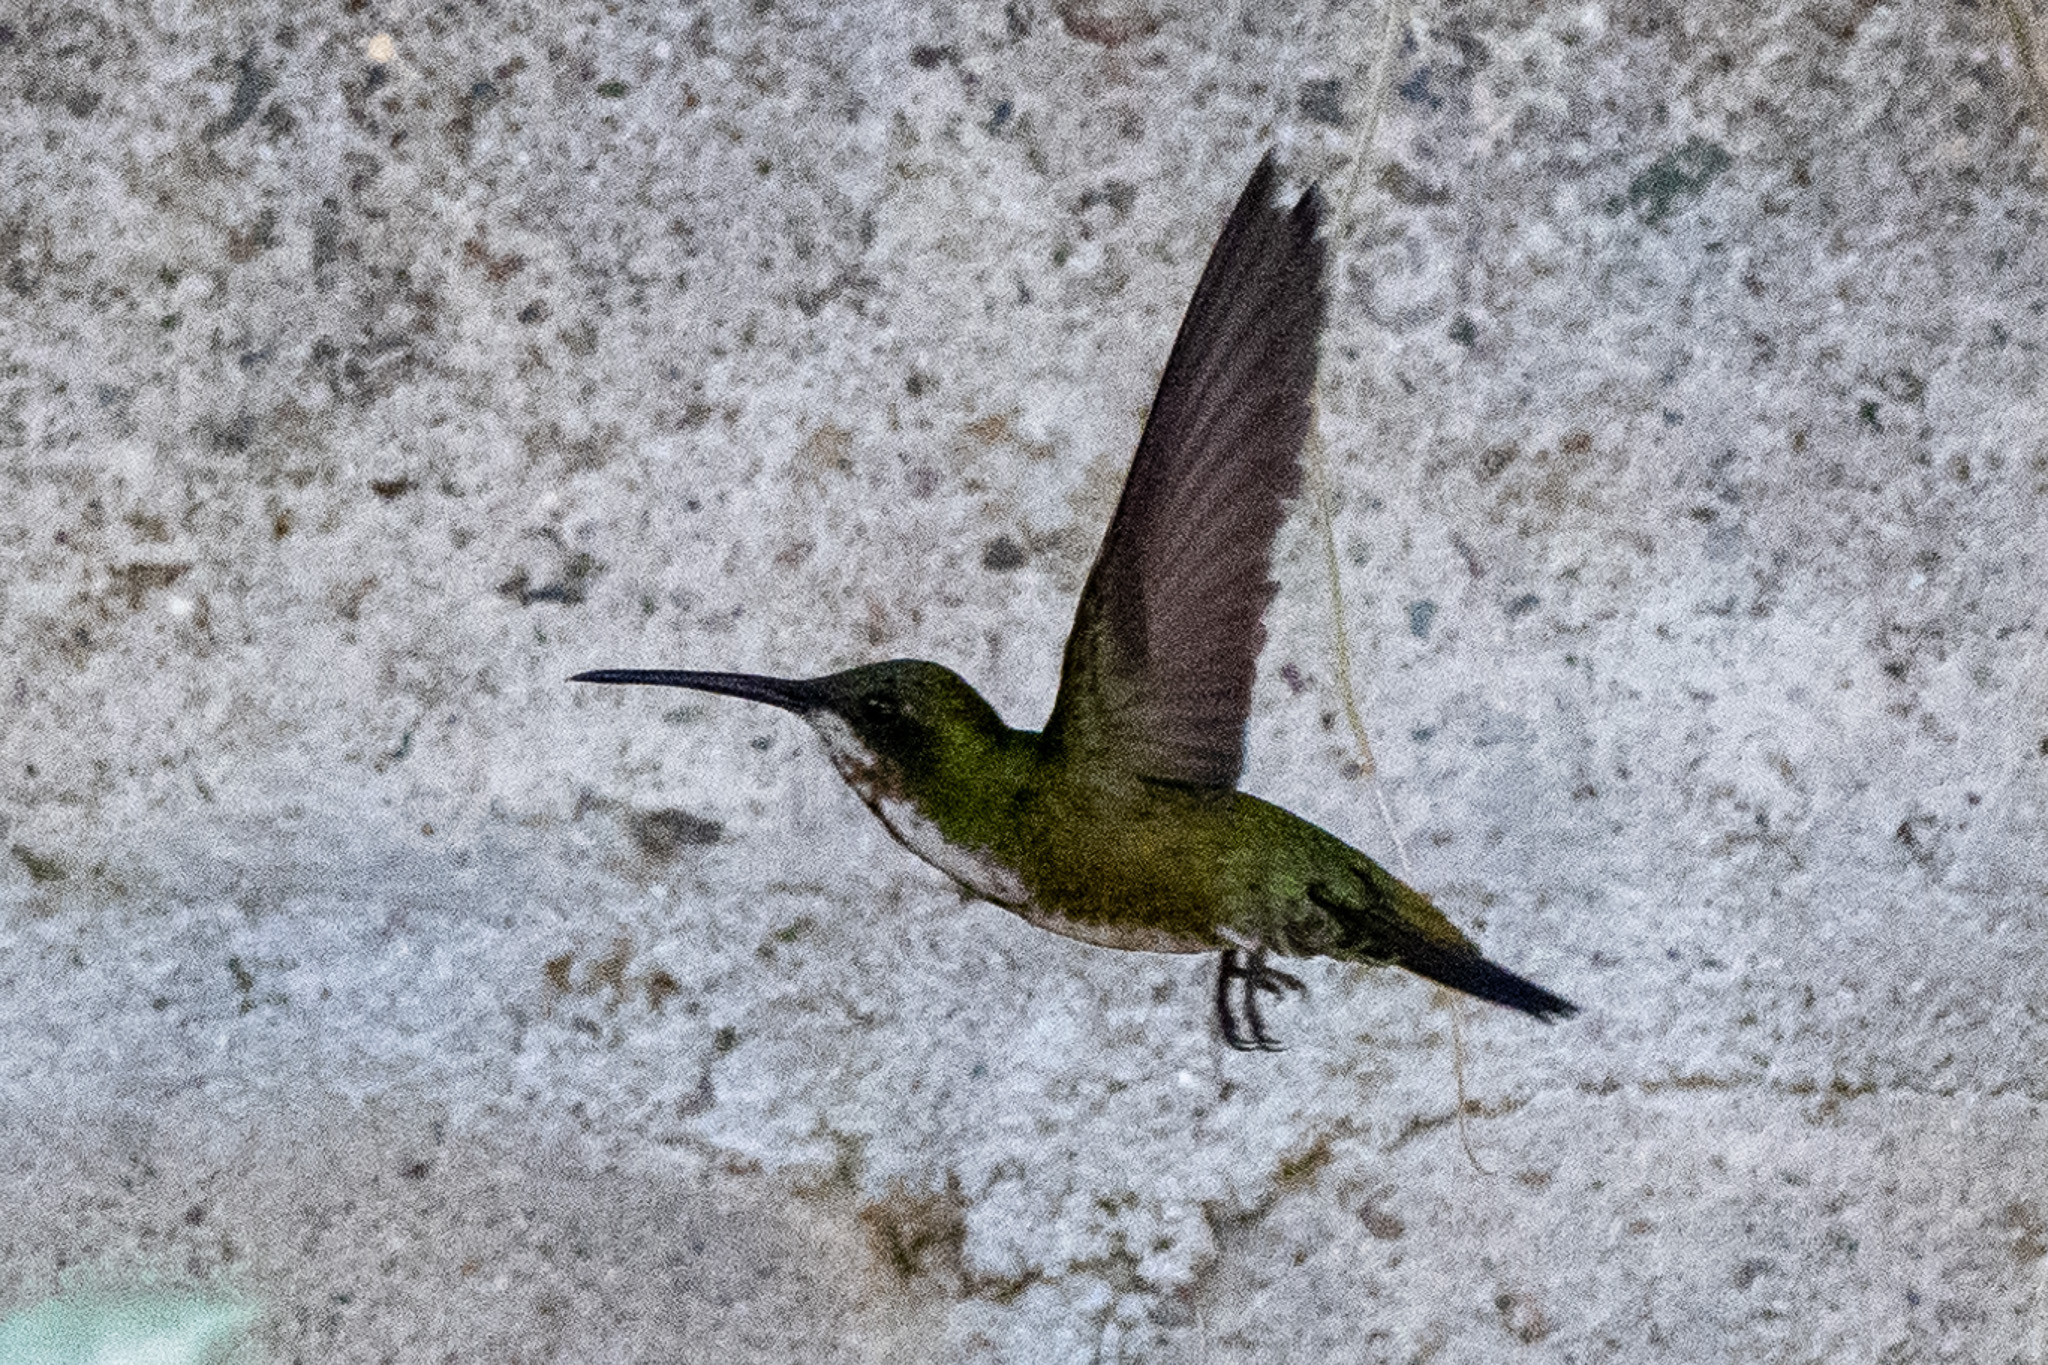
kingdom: Animalia
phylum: Chordata
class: Aves
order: Apodiformes
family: Trochilidae
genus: Anthracothorax
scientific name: Anthracothorax prevostii
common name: Green-breasted mango
